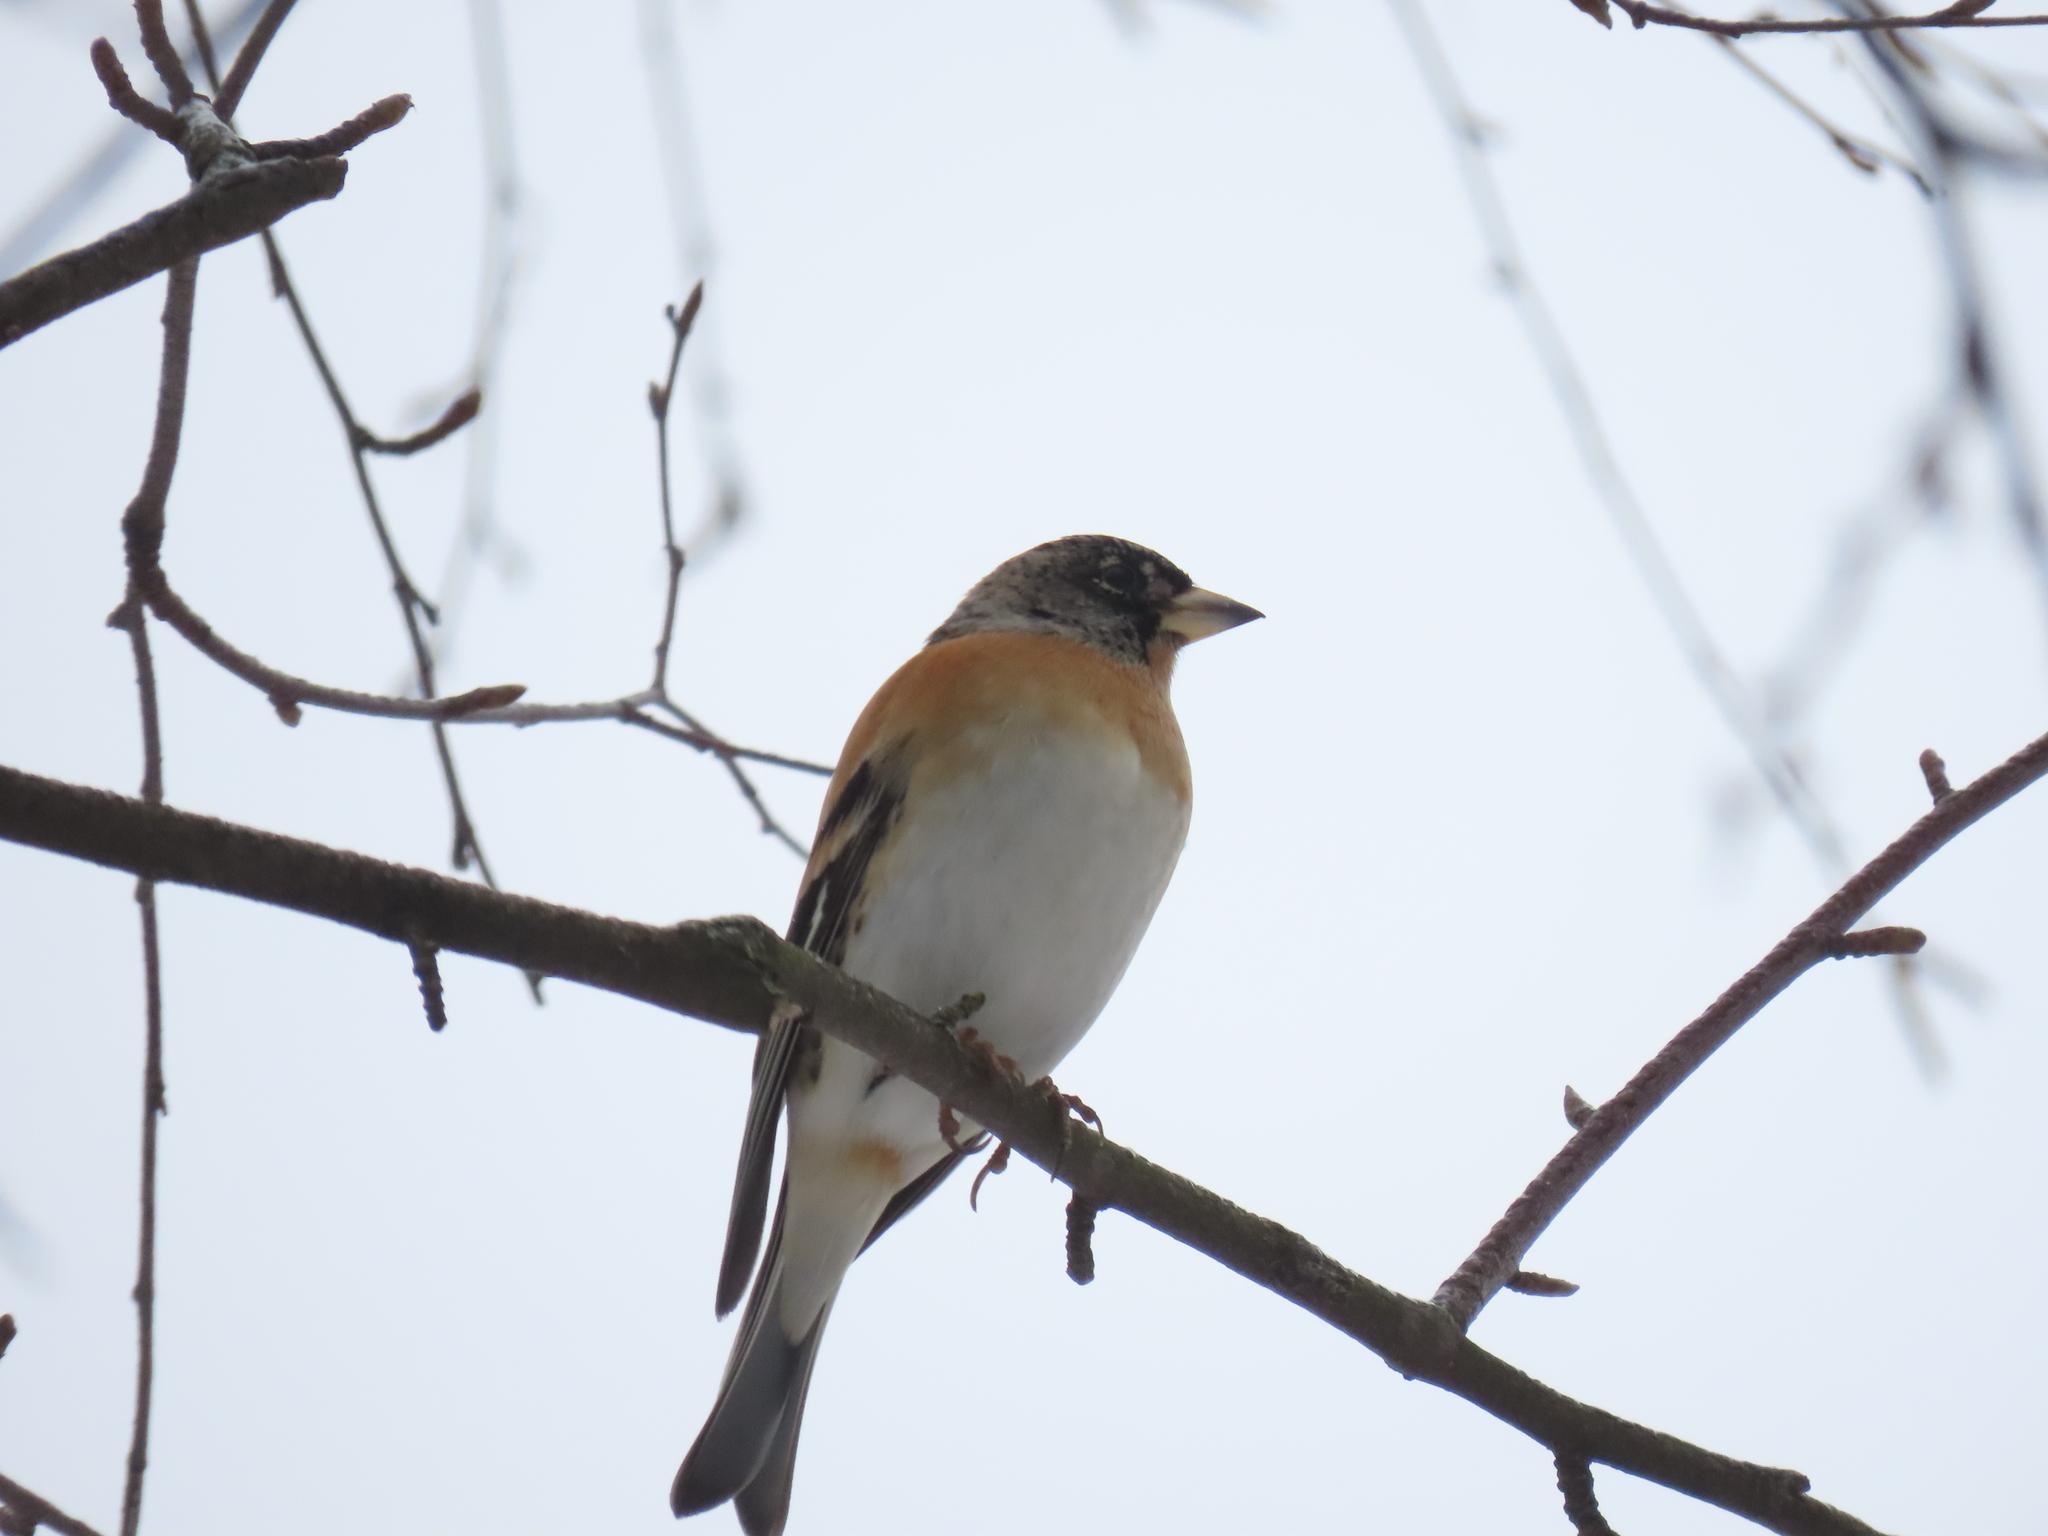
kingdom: Animalia
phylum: Chordata
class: Aves
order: Passeriformes
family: Fringillidae
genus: Fringilla
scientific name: Fringilla montifringilla
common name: Brambling
